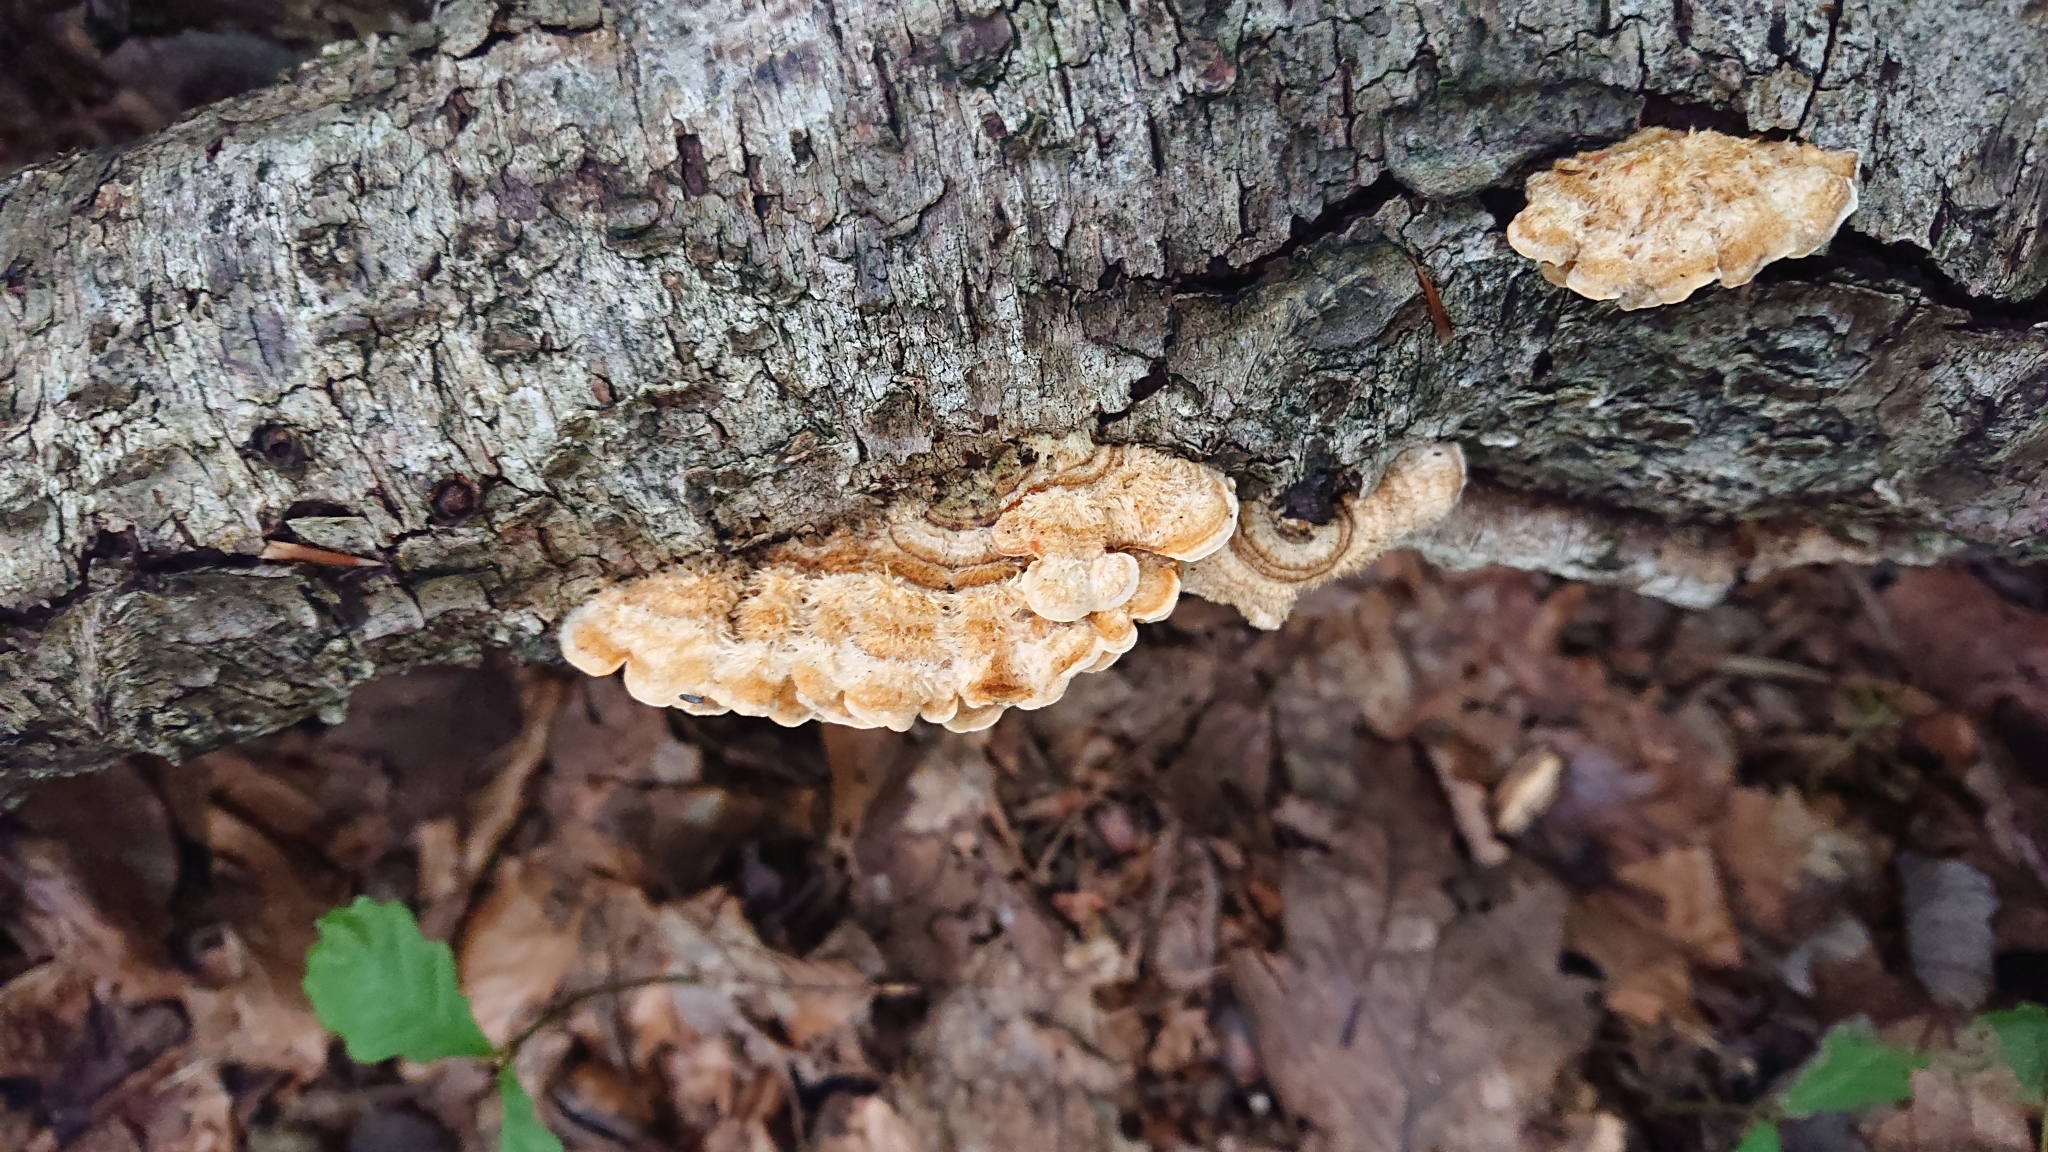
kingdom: Fungi
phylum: Basidiomycota
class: Agaricomycetes
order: Russulales
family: Stereaceae
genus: Stereum
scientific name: Stereum hirsutum
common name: Hairy curtain crust
